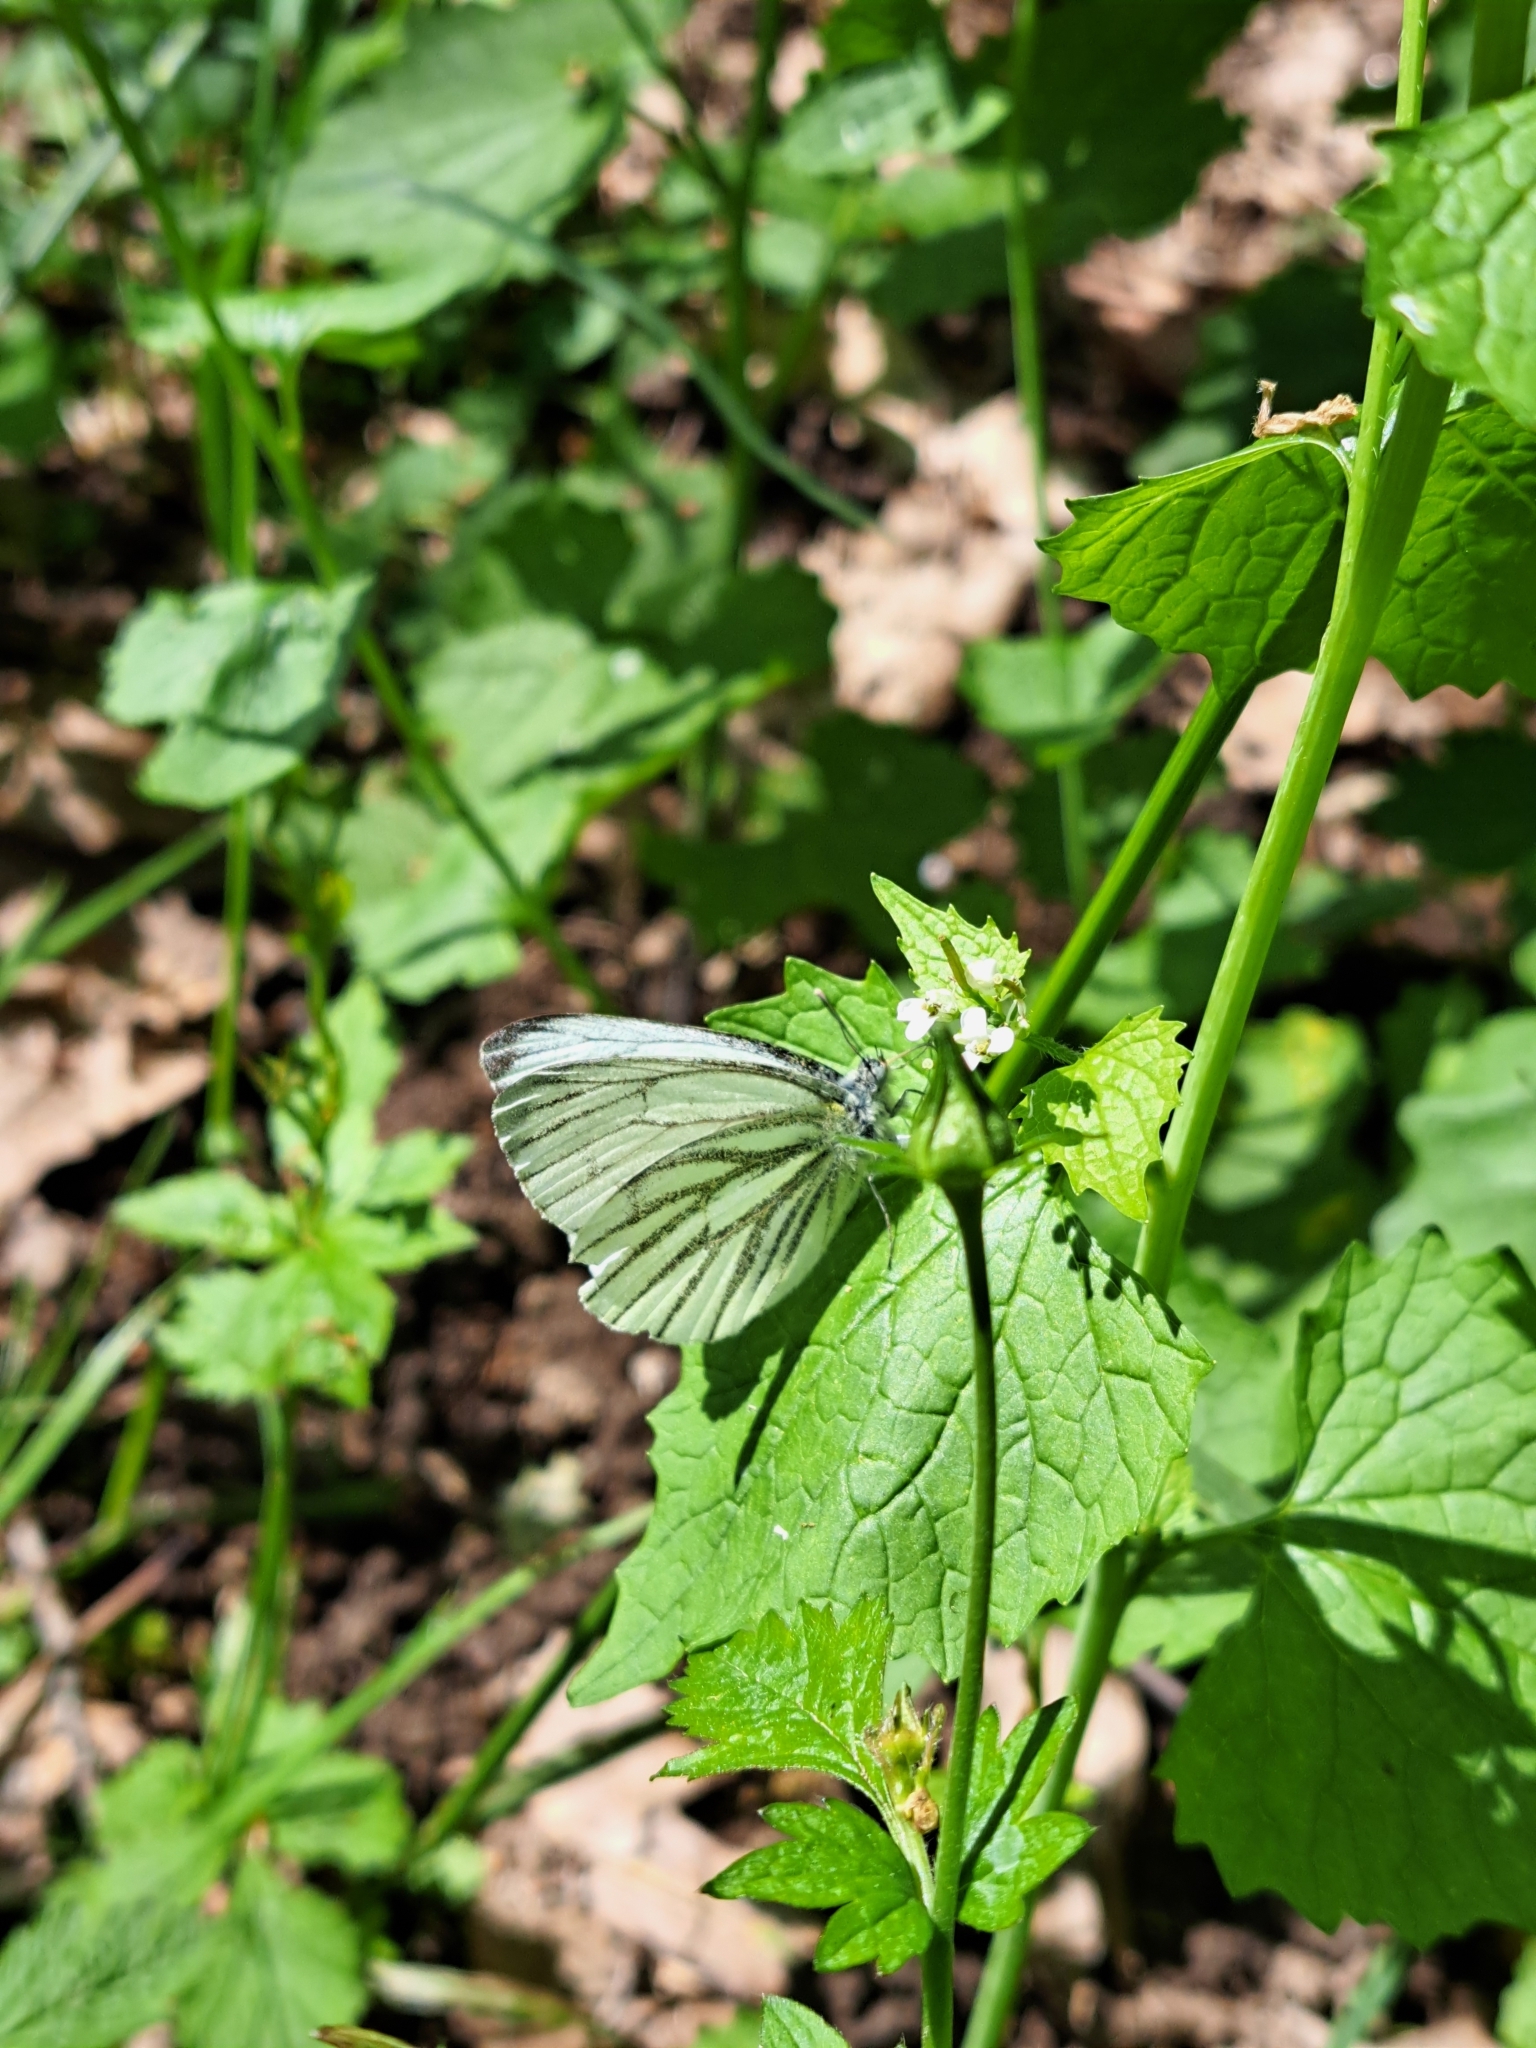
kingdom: Animalia
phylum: Arthropoda
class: Insecta
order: Lepidoptera
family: Pieridae
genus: Pieris
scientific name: Pieris napi
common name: Green-veined white
